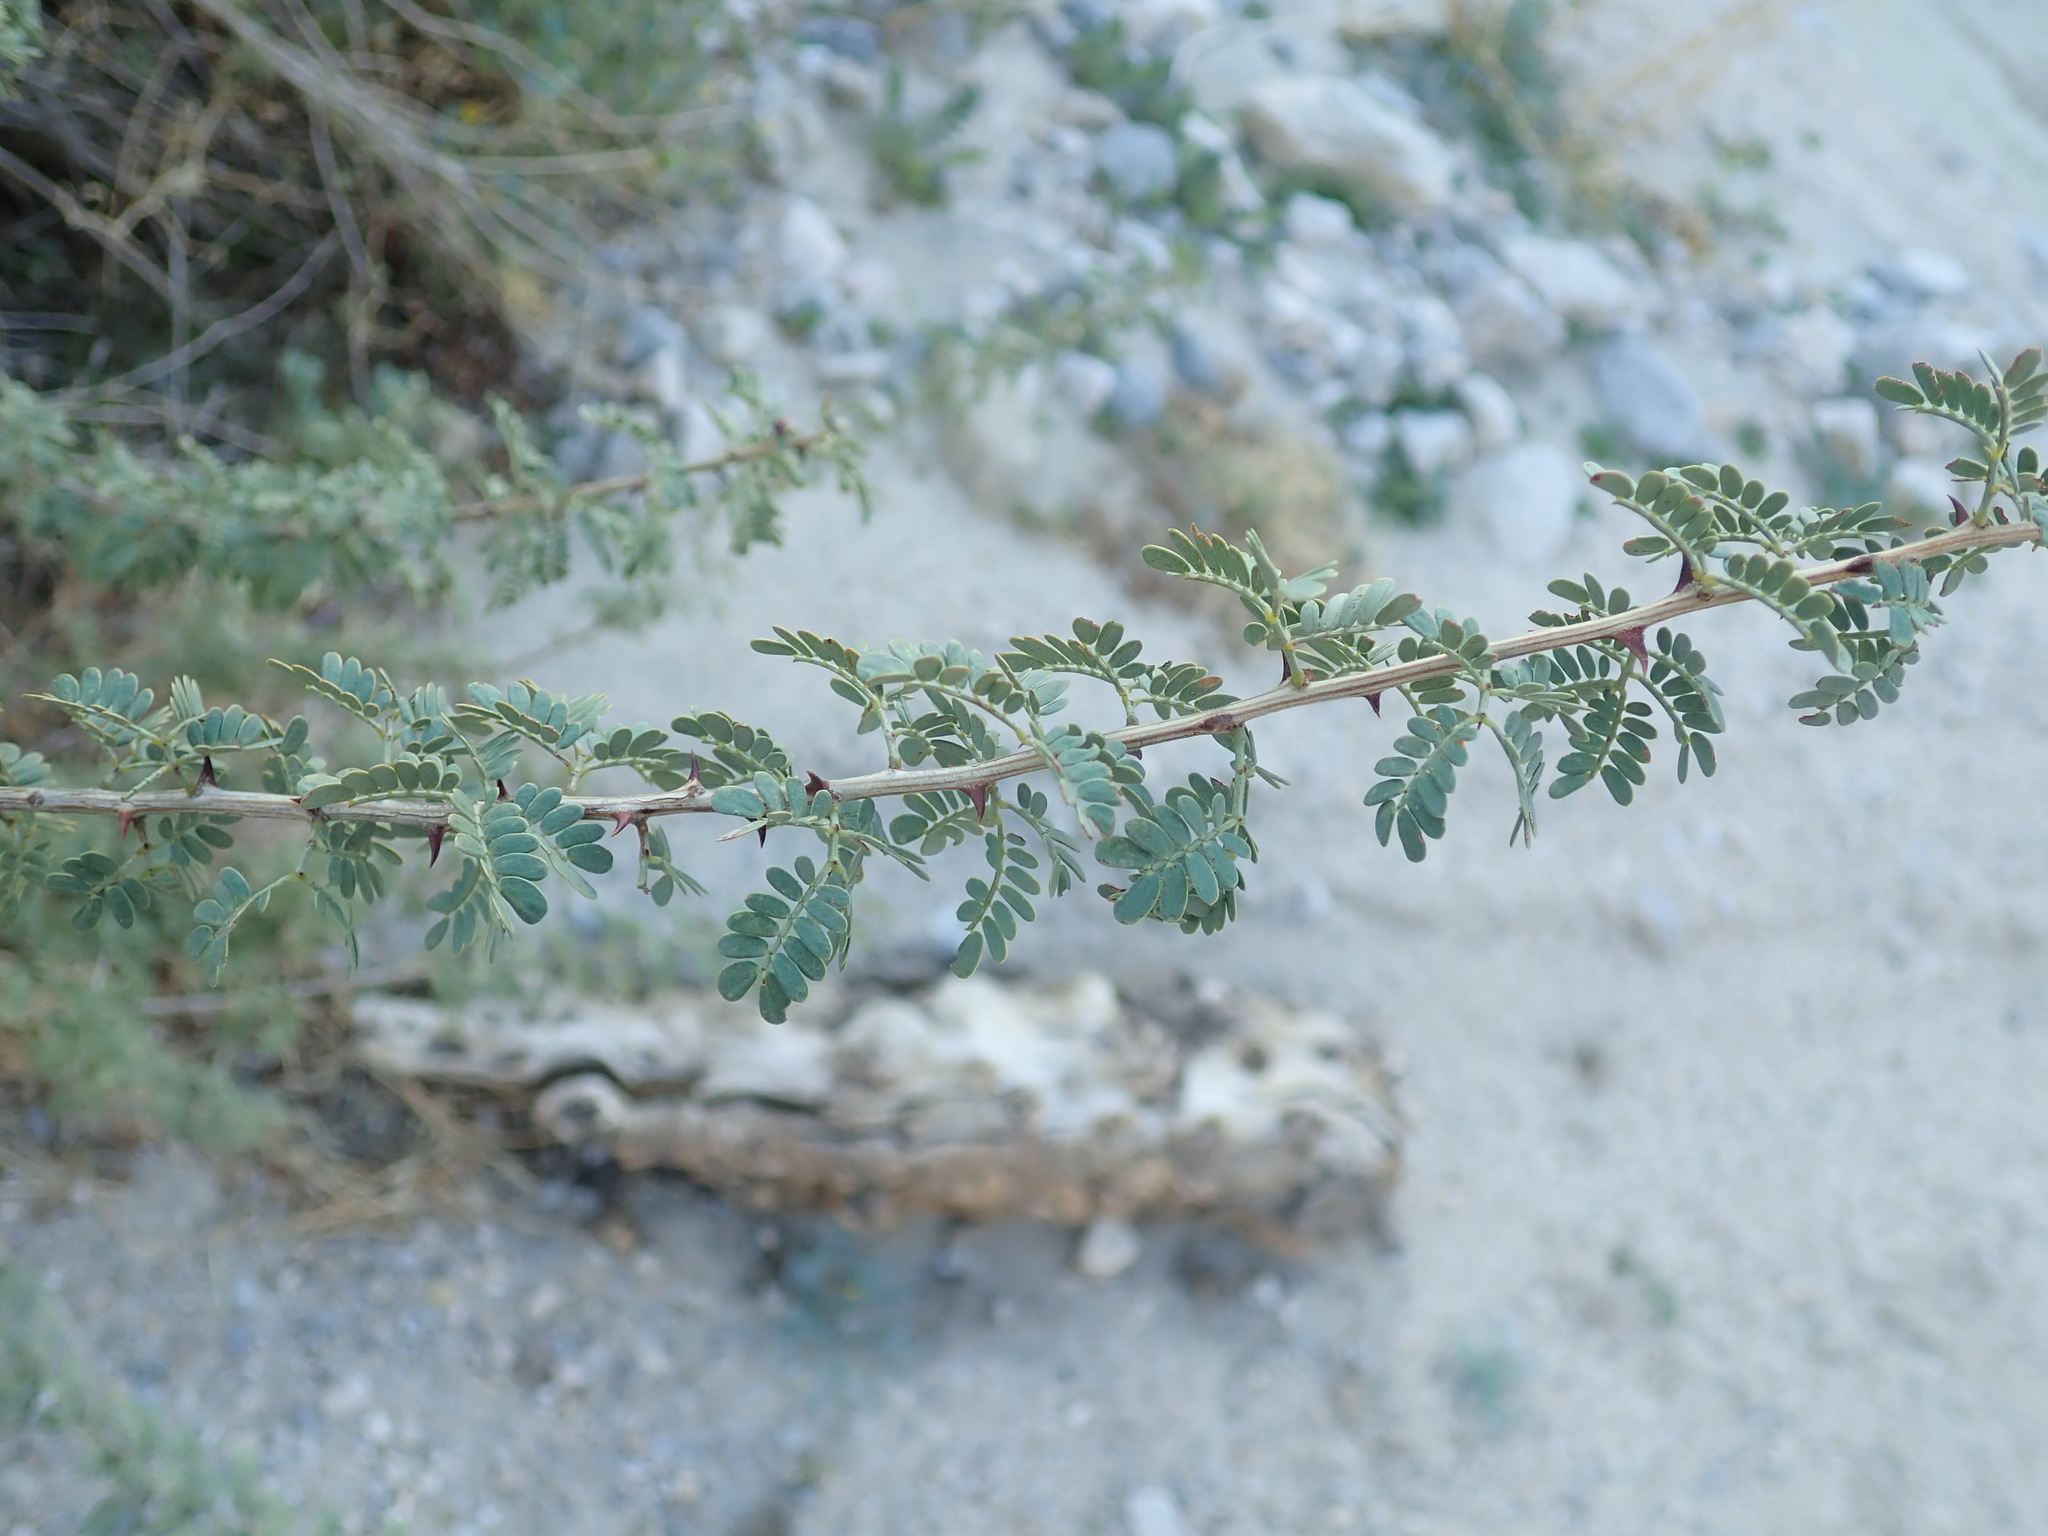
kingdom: Plantae
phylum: Tracheophyta
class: Magnoliopsida
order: Fabales
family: Fabaceae
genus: Senegalia
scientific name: Senegalia greggii
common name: Texas-mimosa
